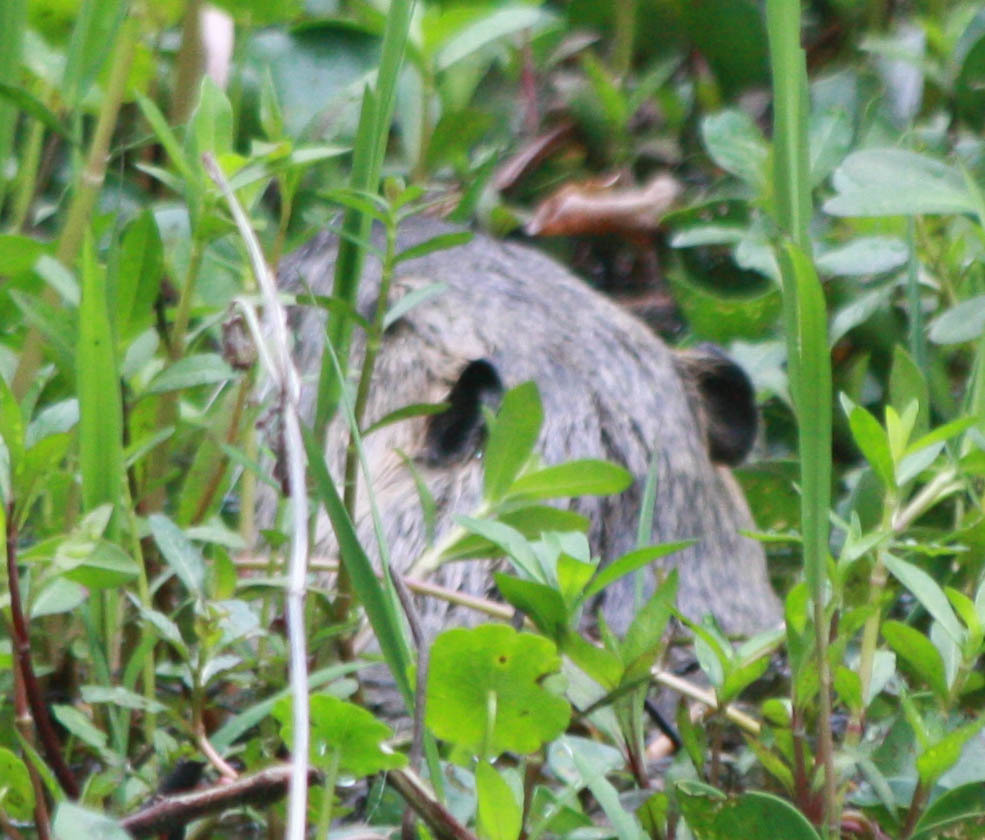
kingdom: Animalia
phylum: Chordata
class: Mammalia
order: Rodentia
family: Myocastoridae
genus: Myocastor
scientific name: Myocastor coypus
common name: Coypu
